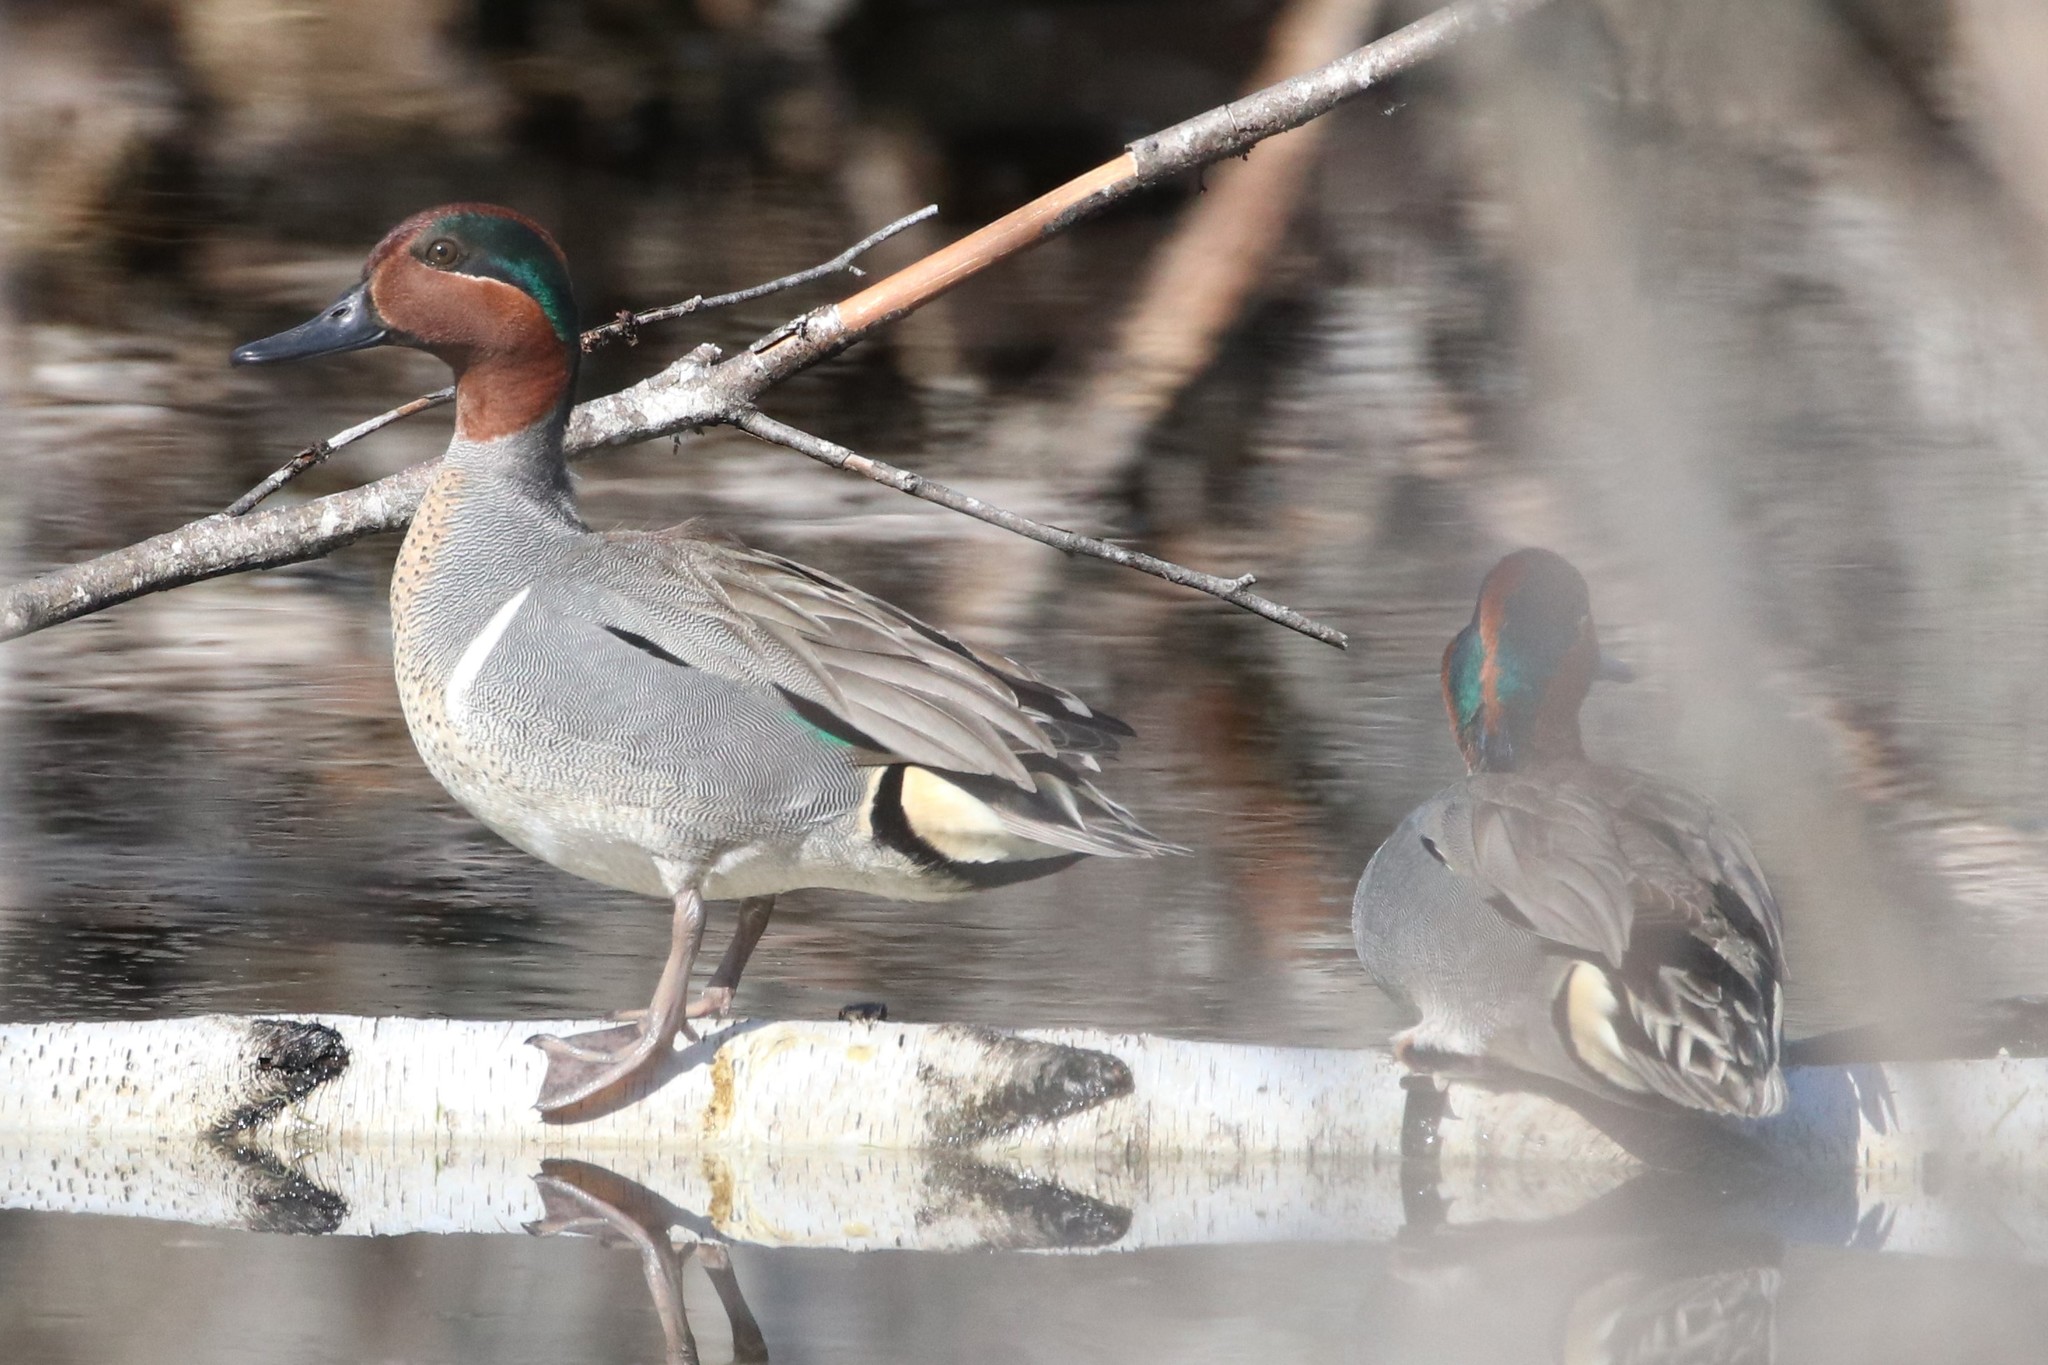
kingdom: Animalia
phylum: Chordata
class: Aves
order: Anseriformes
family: Anatidae
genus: Anas
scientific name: Anas crecca
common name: Eurasian teal
